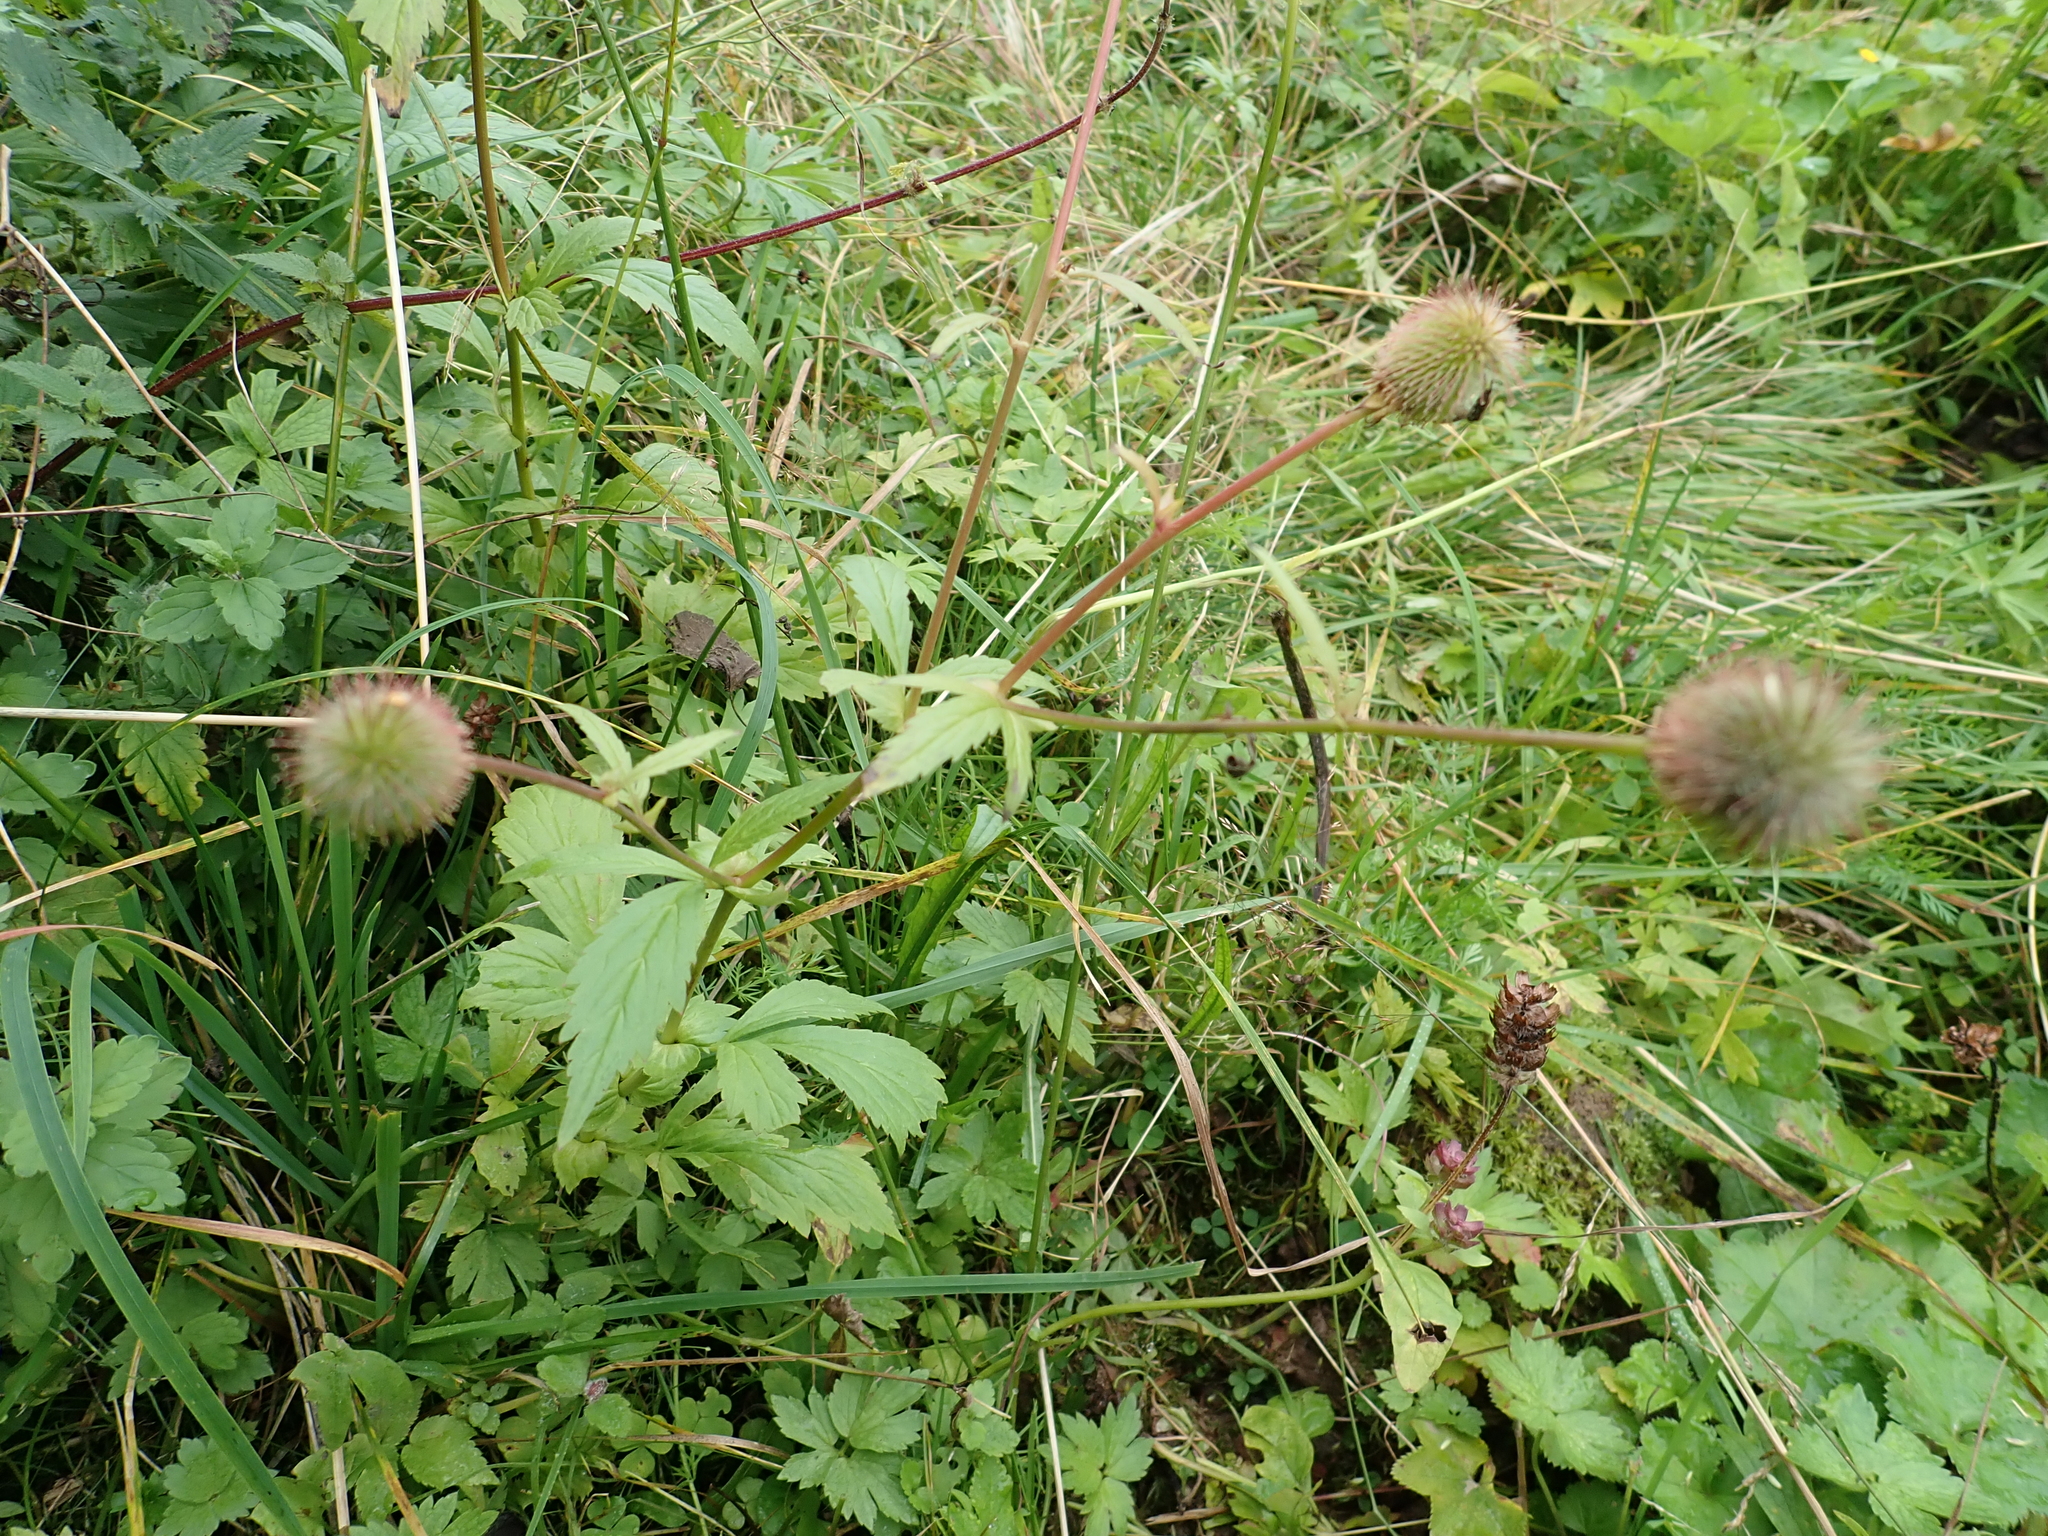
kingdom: Plantae
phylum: Tracheophyta
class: Magnoliopsida
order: Rosales
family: Rosaceae
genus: Geum
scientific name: Geum aleppicum
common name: Yellow avens
